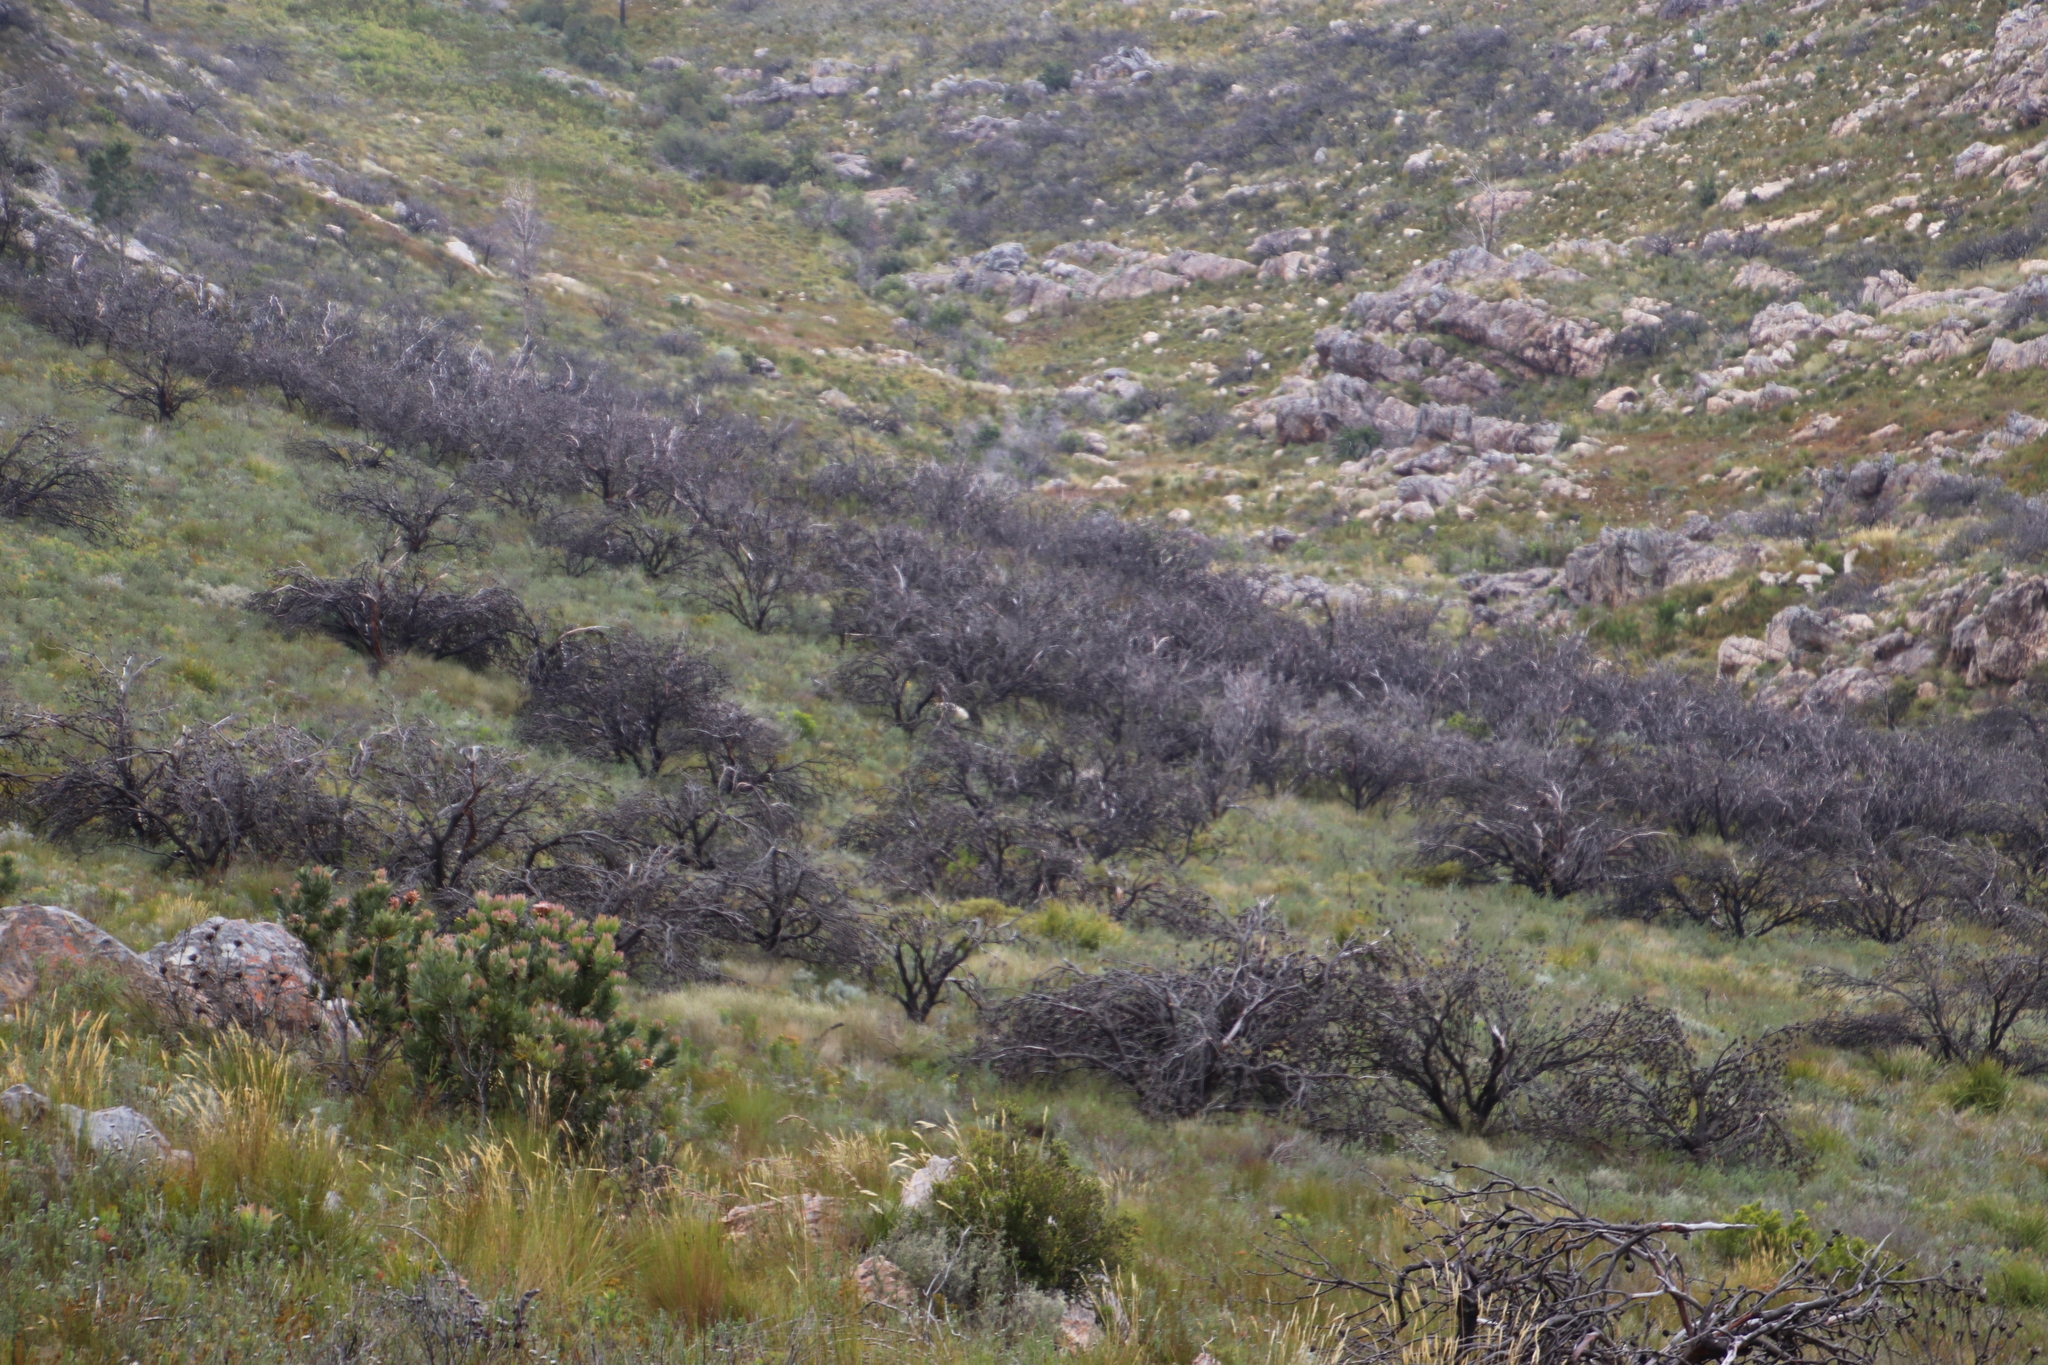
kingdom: Plantae
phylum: Tracheophyta
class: Magnoliopsida
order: Proteales
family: Proteaceae
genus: Protea
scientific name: Protea laurifolia
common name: Grey-leaf sugarbsh
